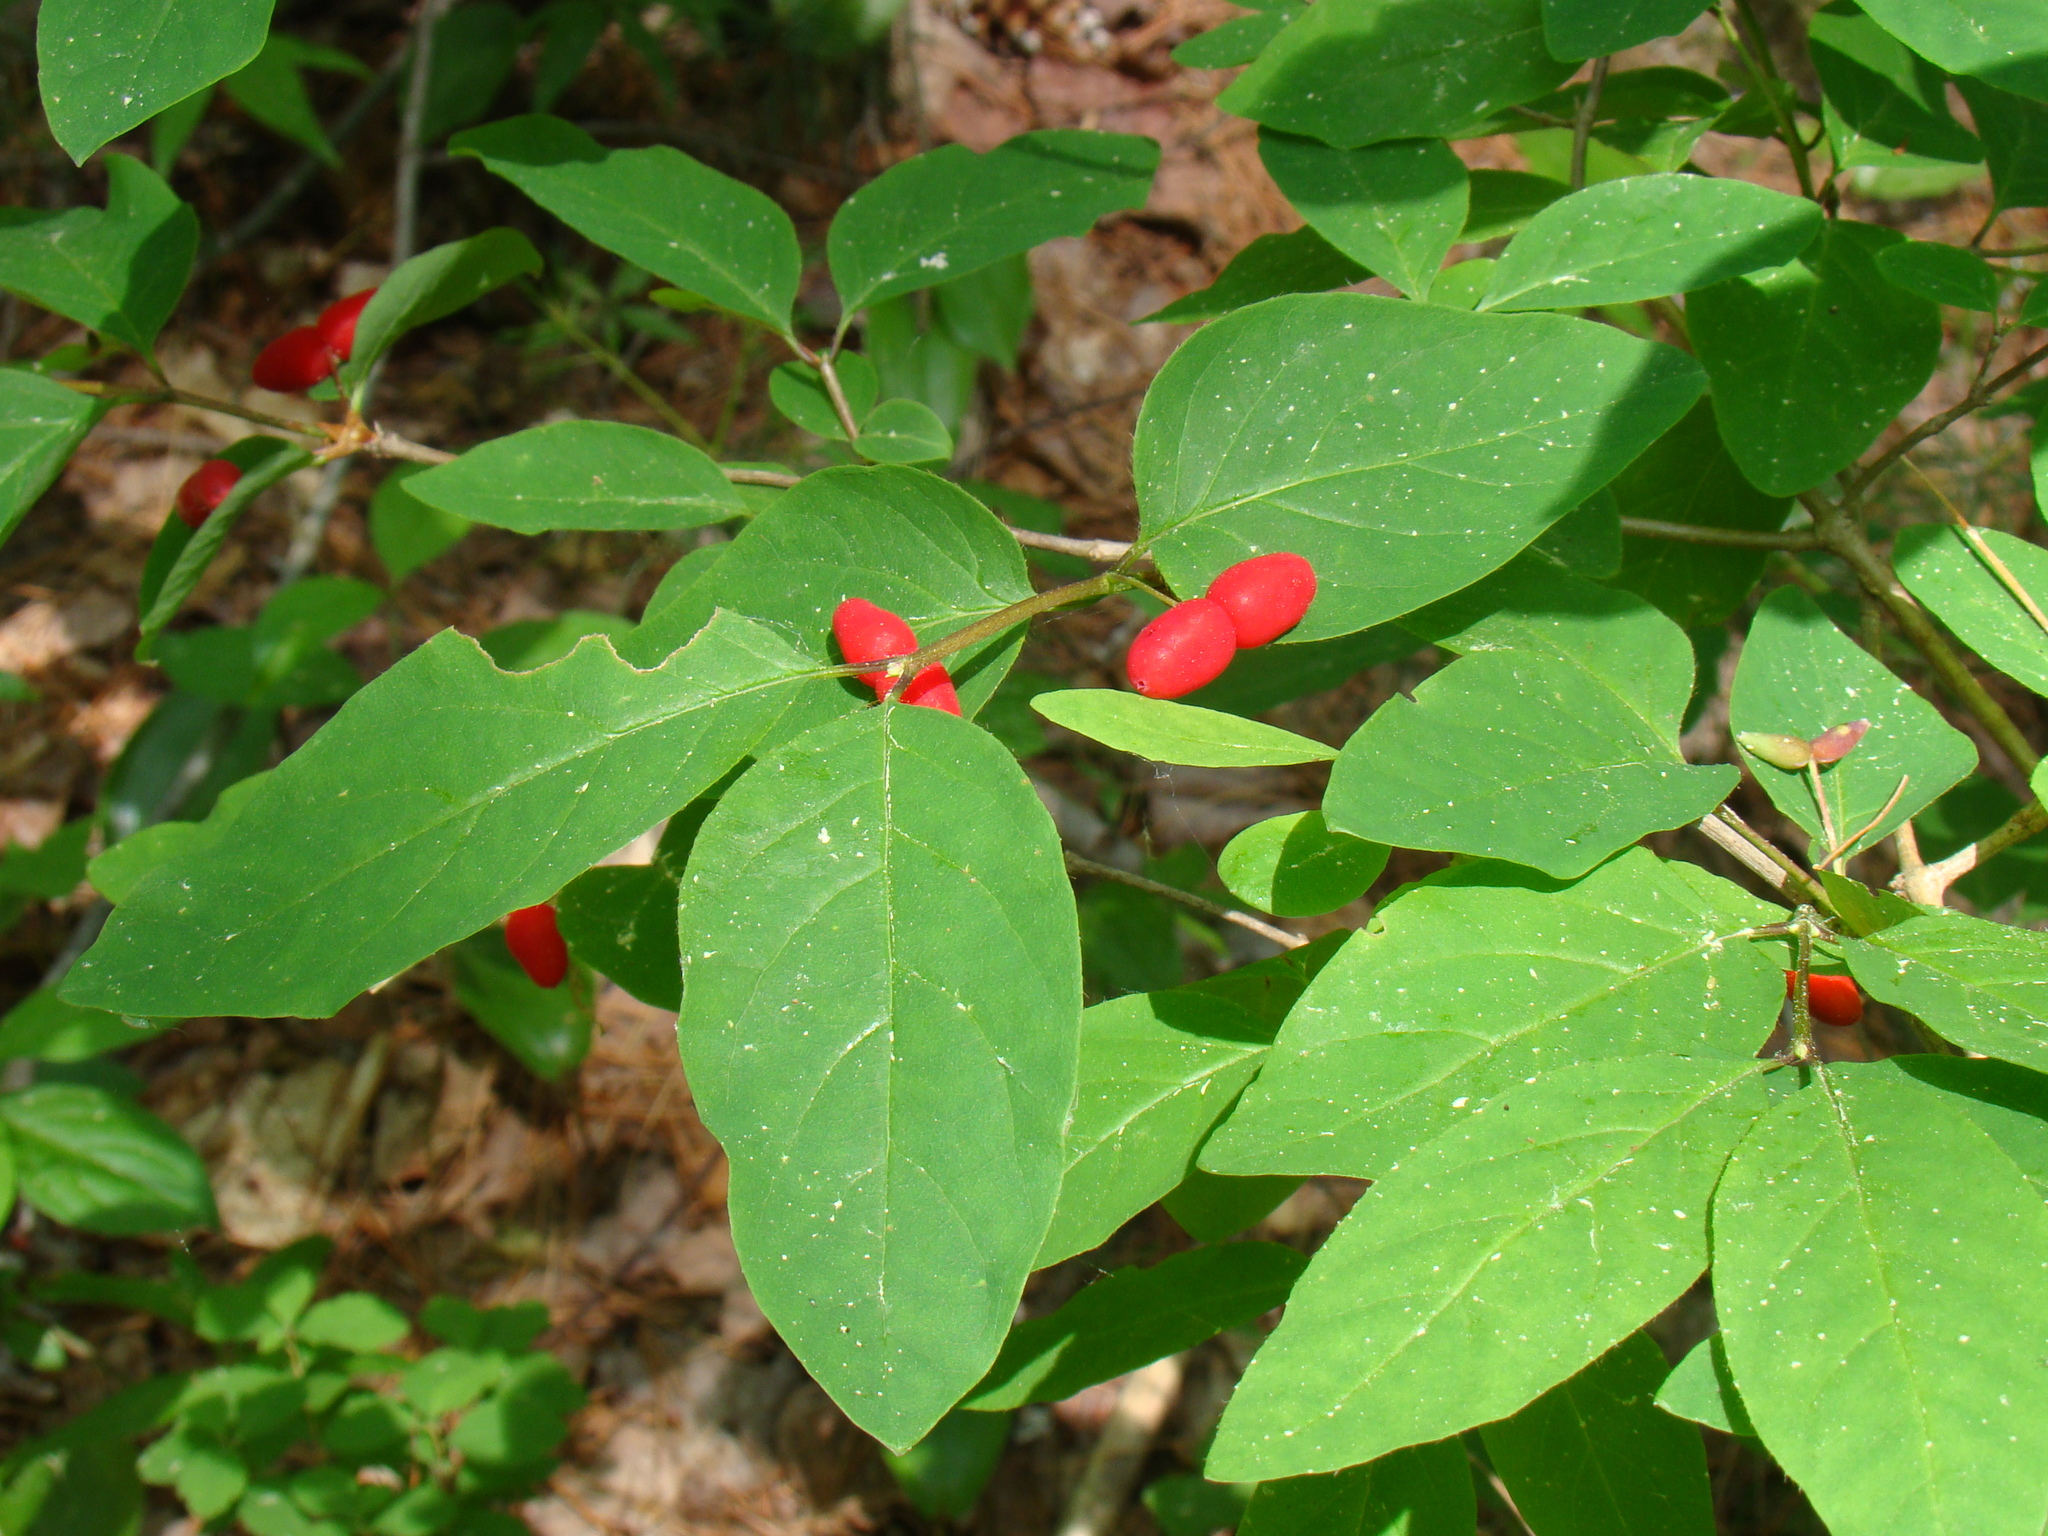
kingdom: Plantae
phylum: Tracheophyta
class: Magnoliopsida
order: Dipsacales
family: Caprifoliaceae
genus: Lonicera
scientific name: Lonicera canadensis
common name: American fly-honeysuckle
